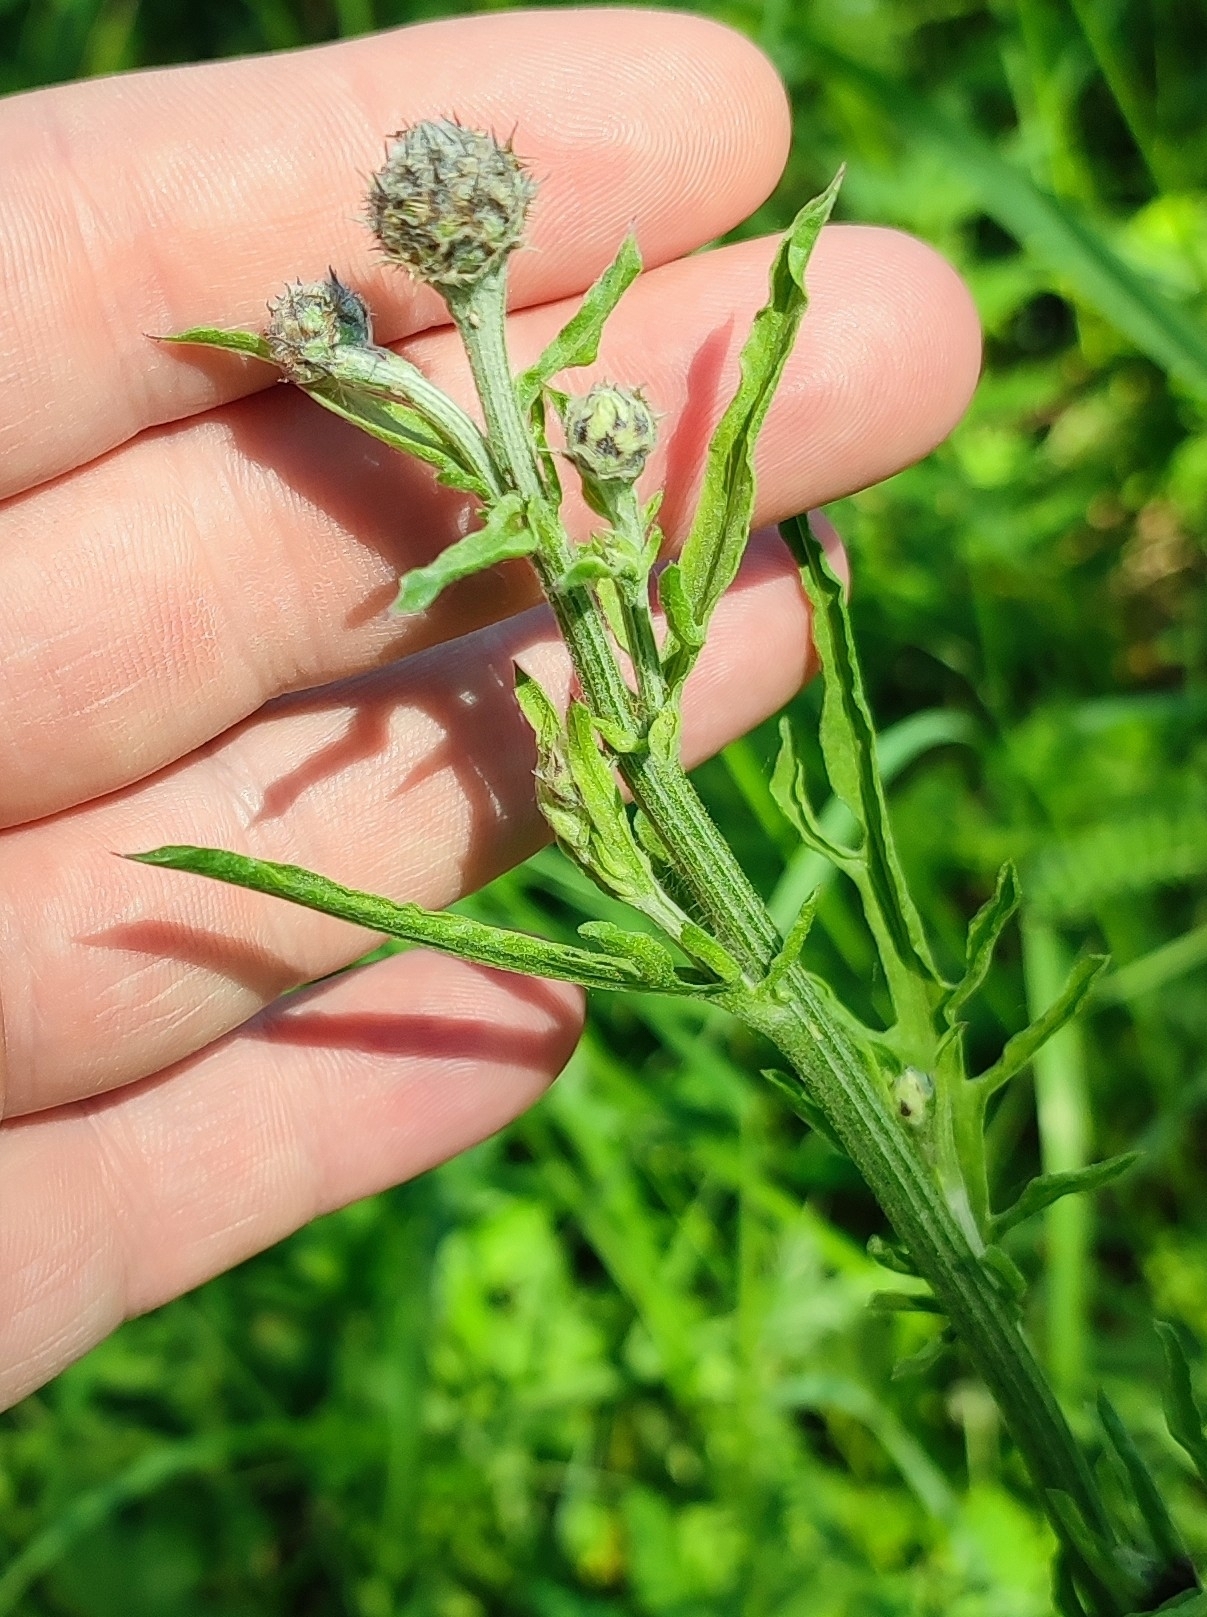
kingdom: Plantae
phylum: Tracheophyta
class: Magnoliopsida
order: Asterales
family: Asteraceae
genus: Centaurea
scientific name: Centaurea scabiosa
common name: Greater knapweed
